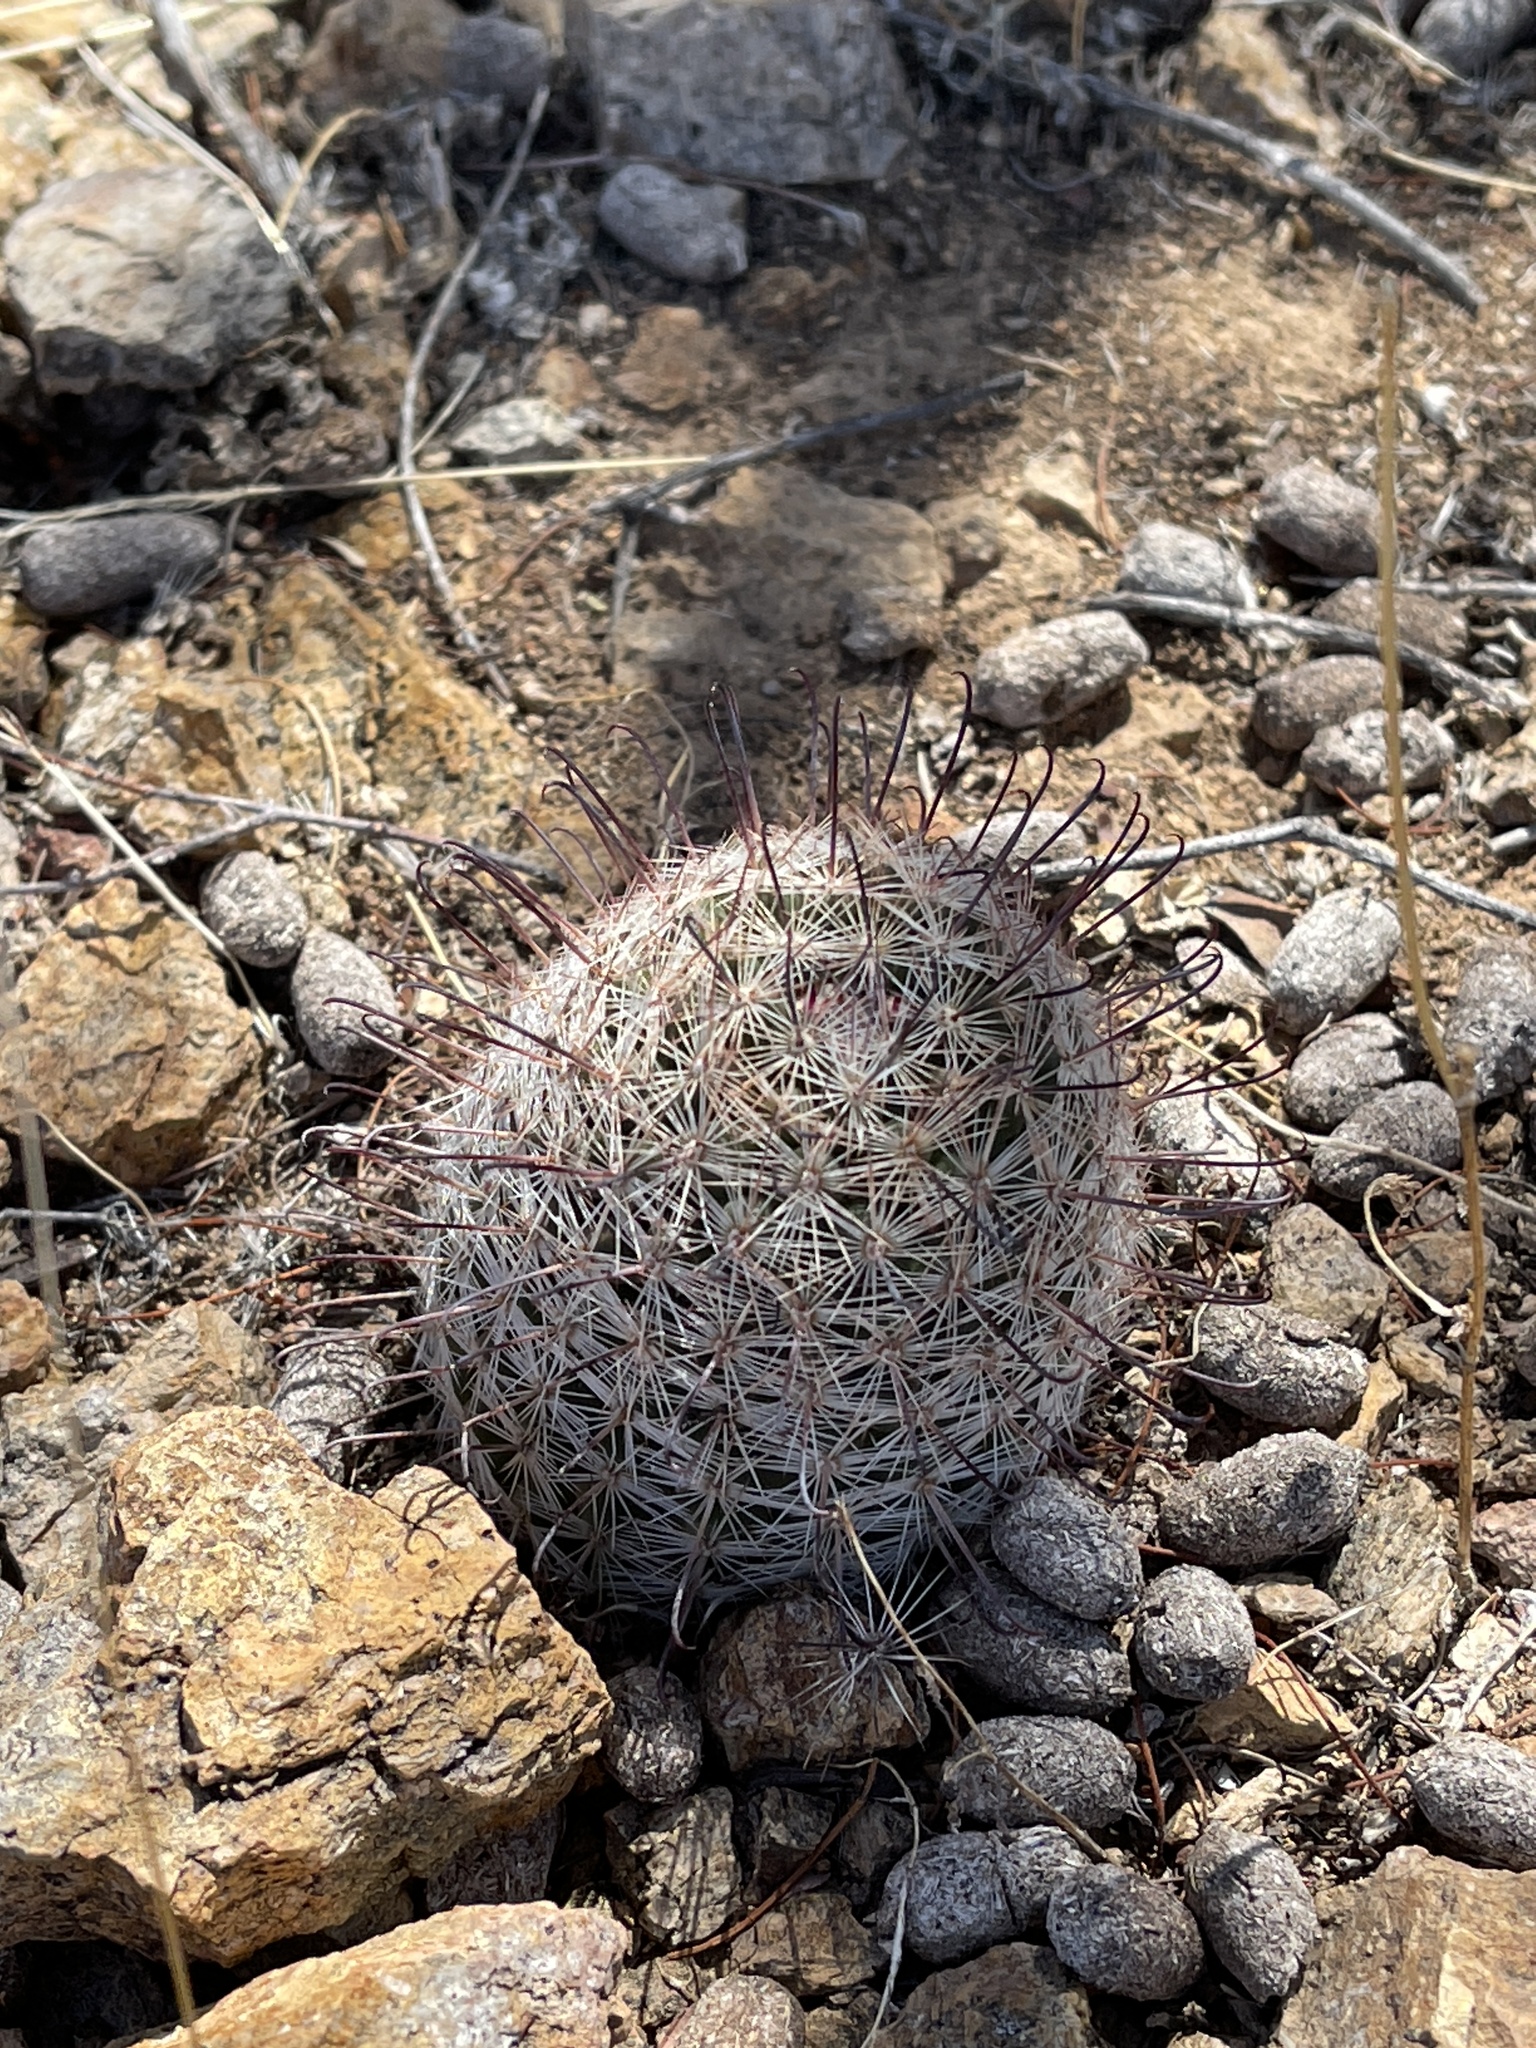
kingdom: Plantae
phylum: Tracheophyta
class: Magnoliopsida
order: Caryophyllales
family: Cactaceae
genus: Cochemiea
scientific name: Cochemiea grahamii
